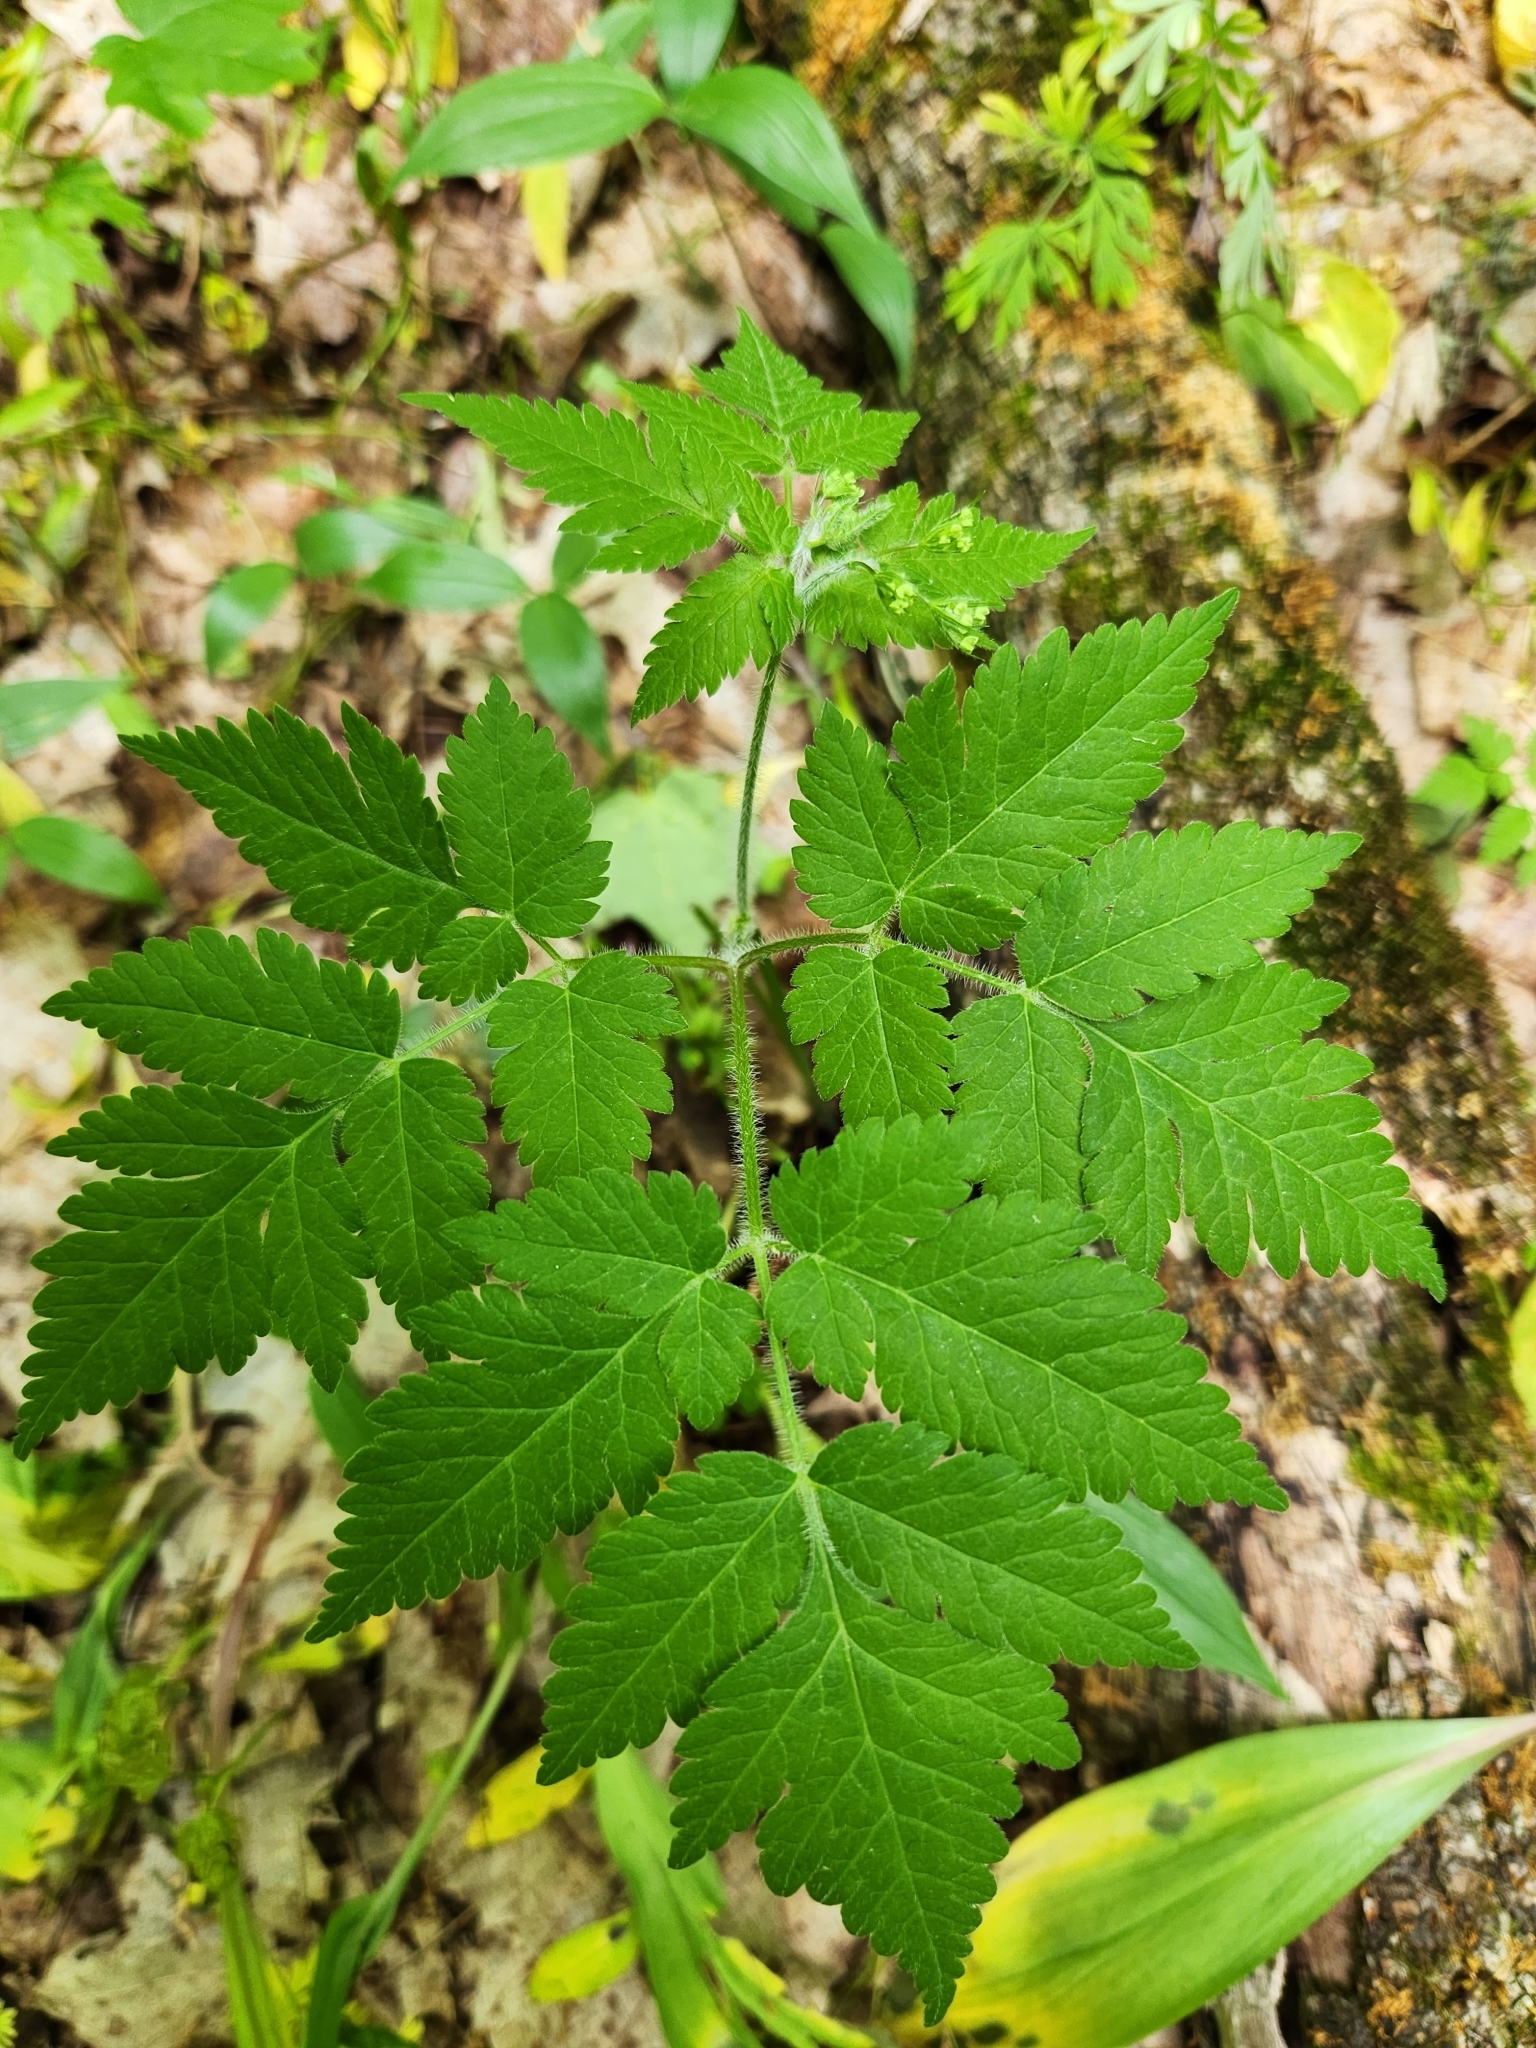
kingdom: Plantae
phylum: Tracheophyta
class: Magnoliopsida
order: Apiales
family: Apiaceae
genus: Osmorhiza
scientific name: Osmorhiza claytonii
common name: Hairy sweet cicely
